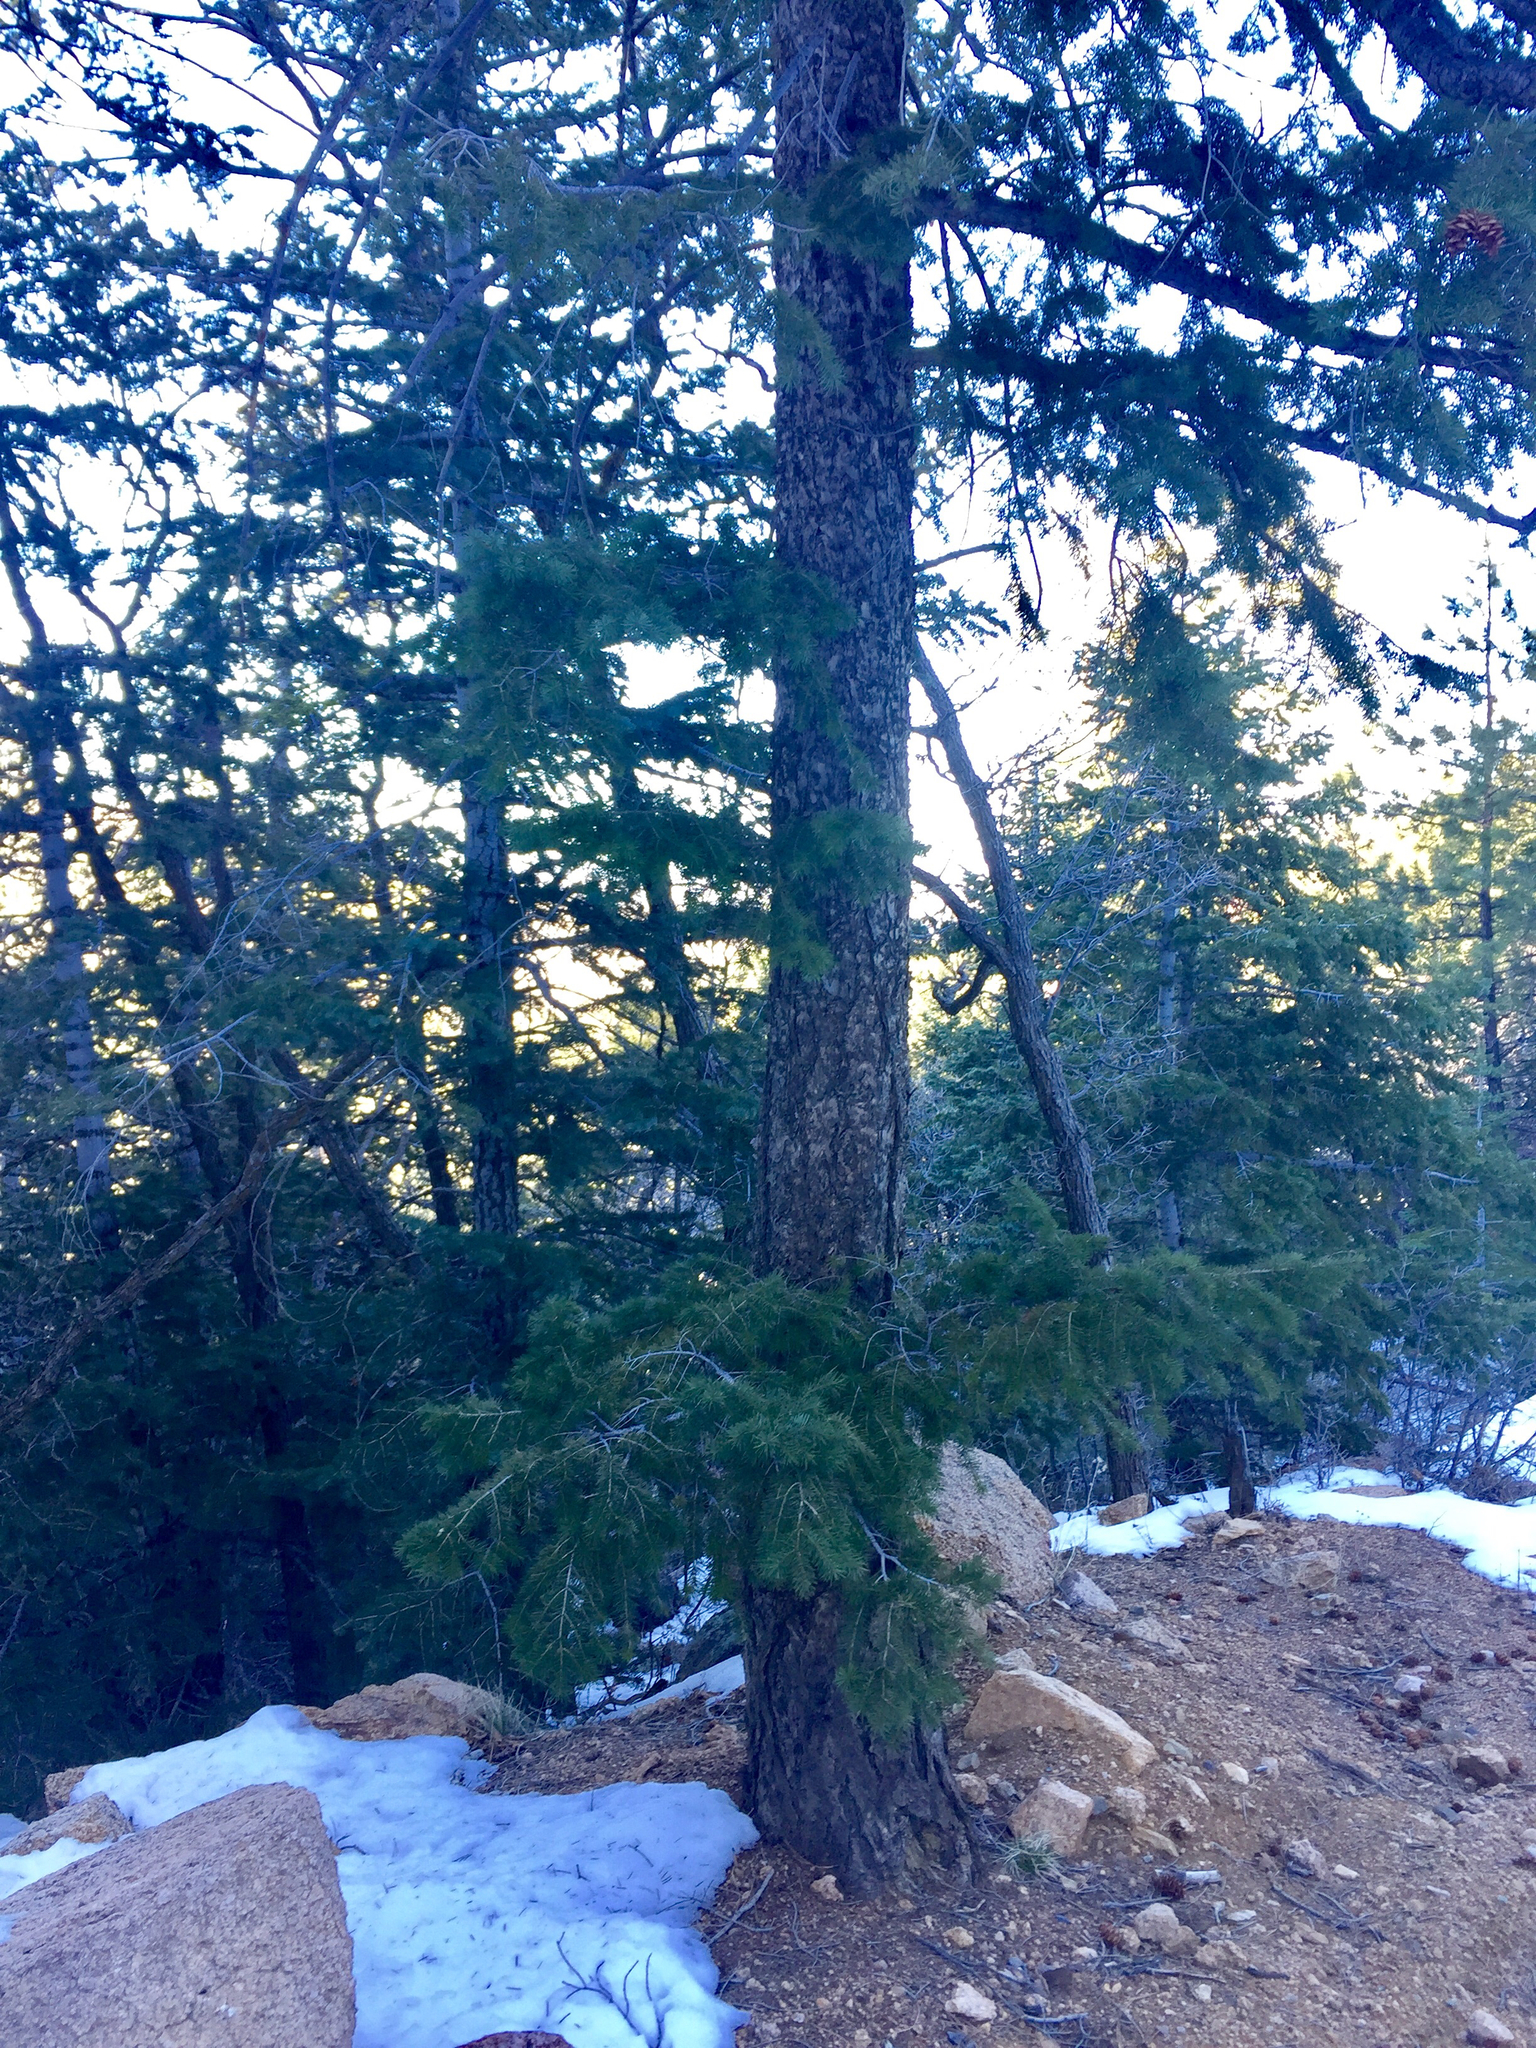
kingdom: Plantae
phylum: Tracheophyta
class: Pinopsida
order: Pinales
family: Pinaceae
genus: Pseudotsuga
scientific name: Pseudotsuga menziesii
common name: Douglas fir
